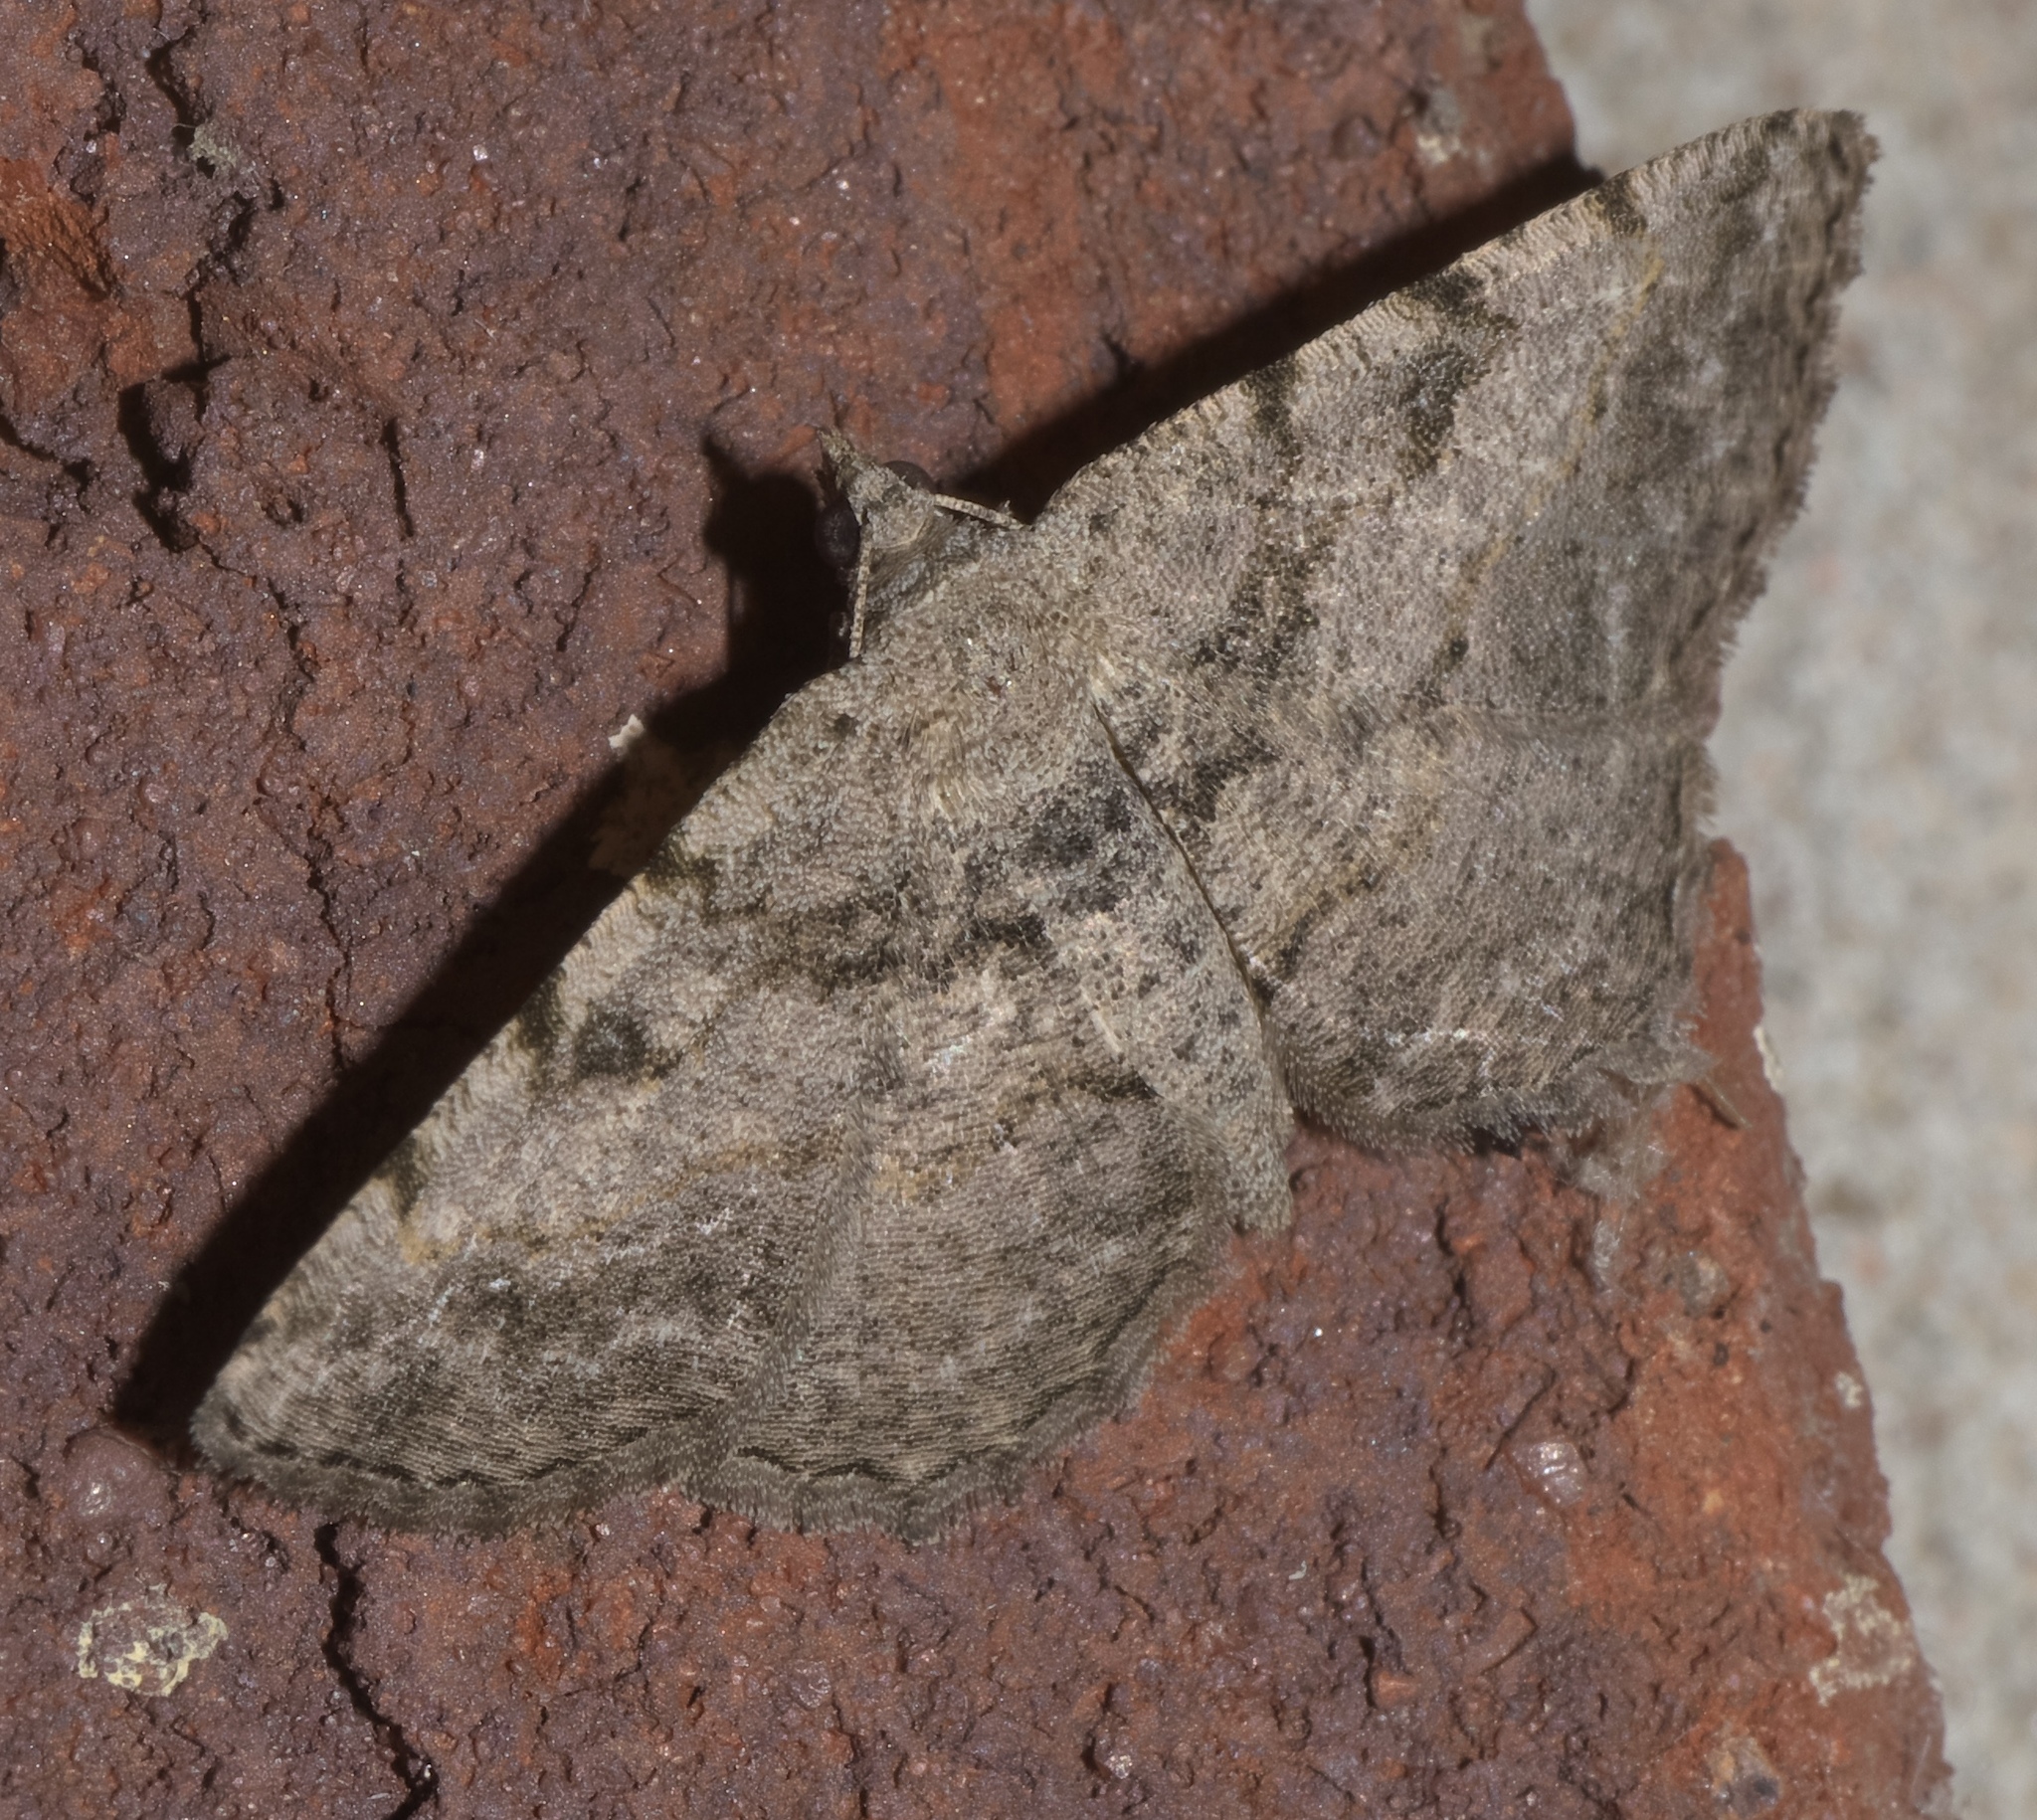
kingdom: Animalia
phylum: Arthropoda
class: Insecta
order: Lepidoptera
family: Geometridae
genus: Digrammia
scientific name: Digrammia gnophosaria
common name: Hollow-spotted angle
